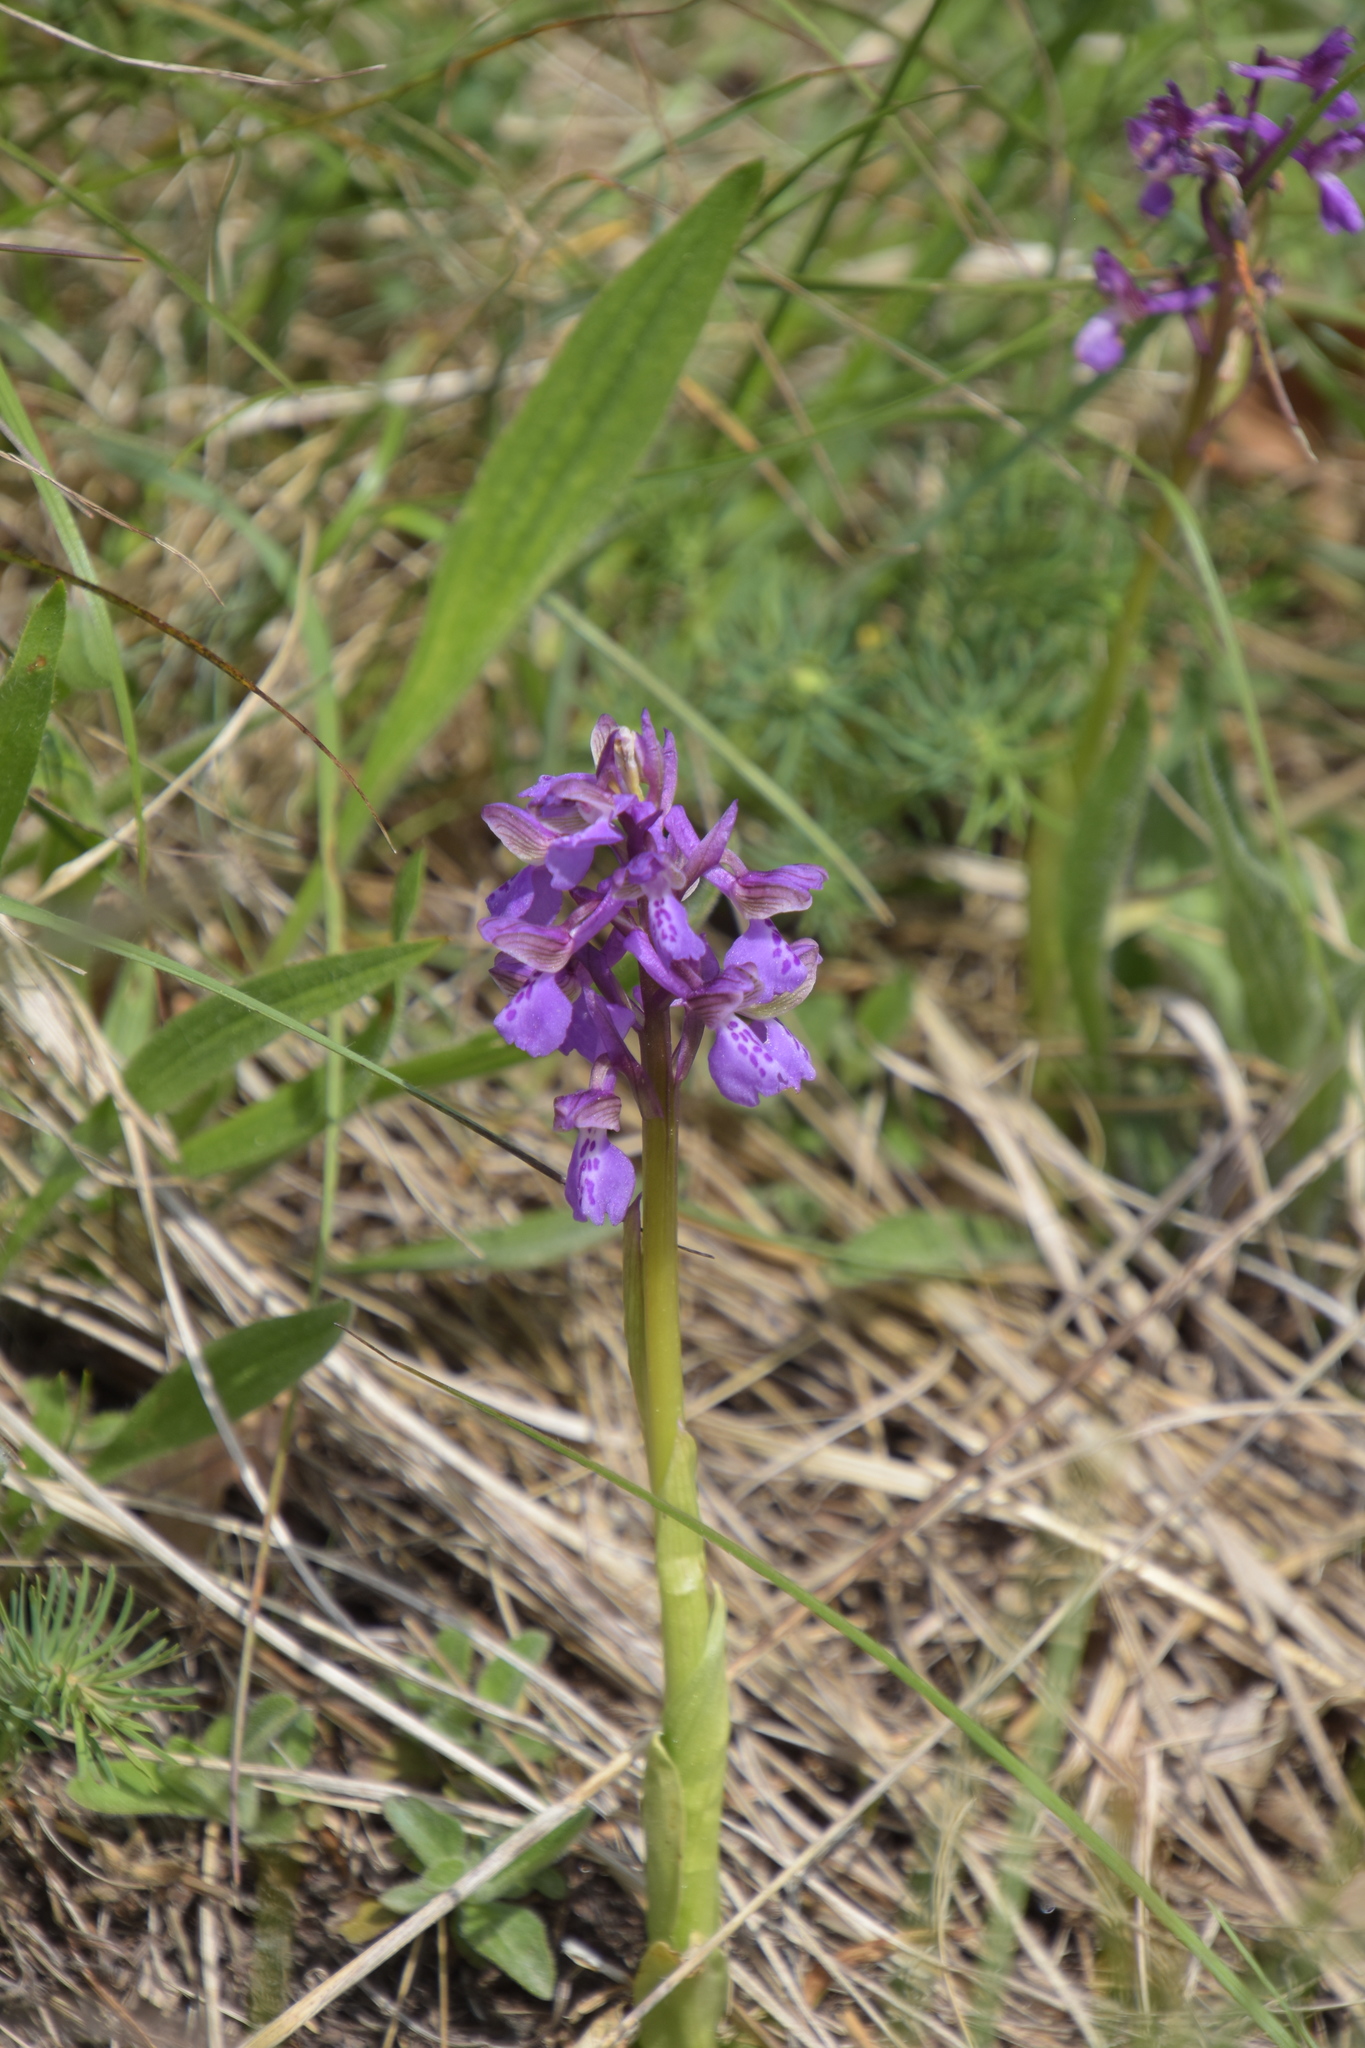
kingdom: Plantae
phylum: Tracheophyta
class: Liliopsida
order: Asparagales
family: Orchidaceae
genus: Anacamptis
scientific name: Anacamptis morio
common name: Green-winged orchid
